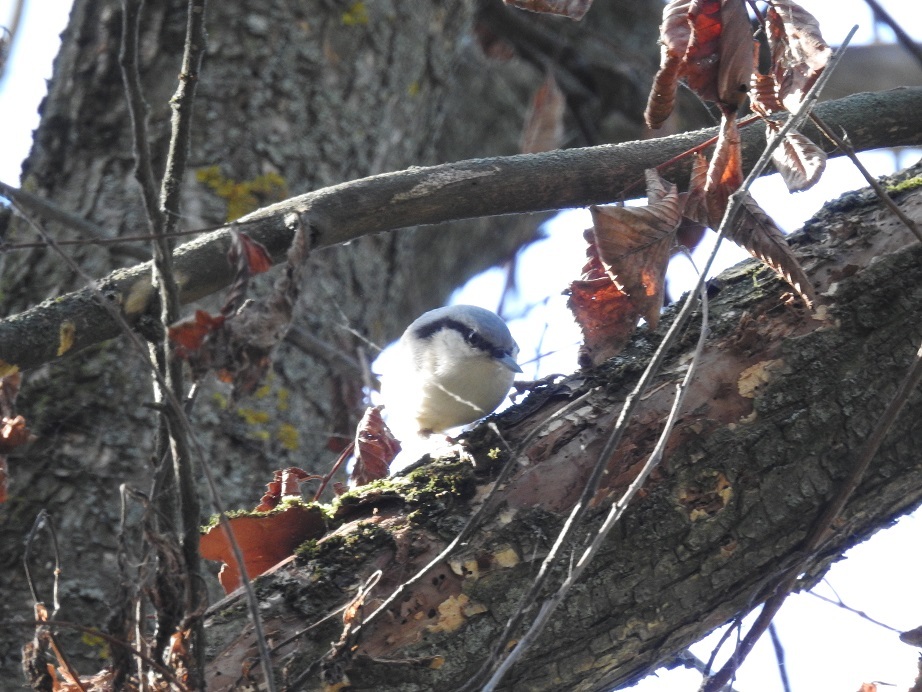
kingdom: Animalia
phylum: Chordata
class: Aves
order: Passeriformes
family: Sittidae
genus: Sitta
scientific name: Sitta europaea
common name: Eurasian nuthatch
